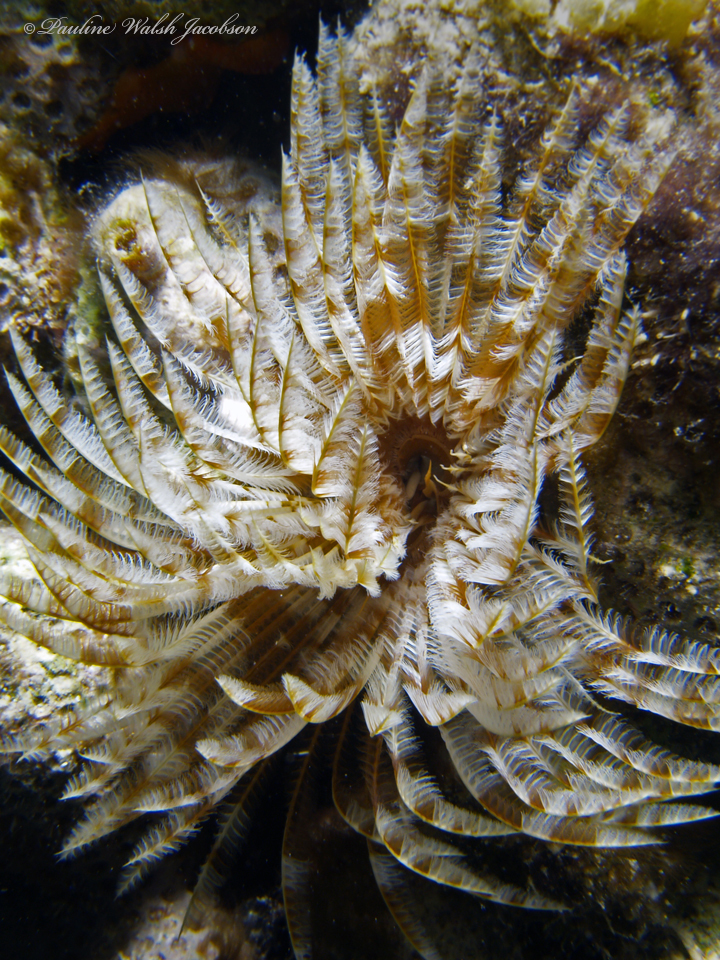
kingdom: Animalia
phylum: Annelida
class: Polychaeta
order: Sabellida
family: Sabellidae
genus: Sabellastarte
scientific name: Sabellastarte magnifica
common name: Giant feather-duster worm
